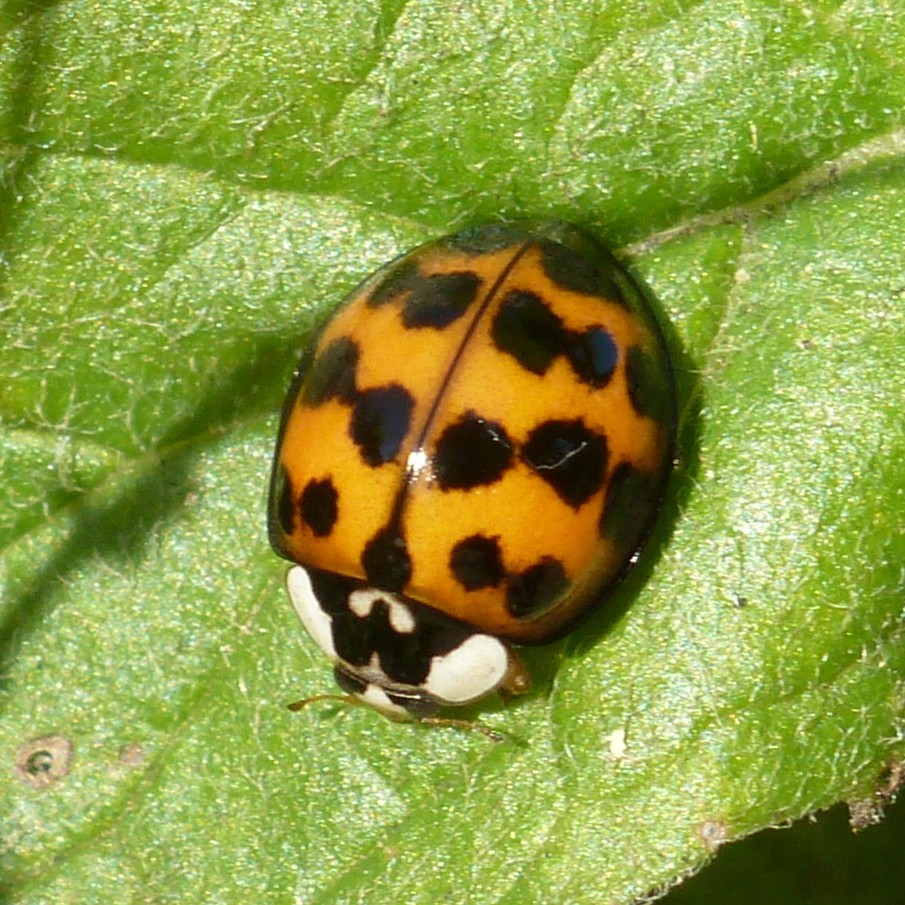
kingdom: Animalia
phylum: Arthropoda
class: Insecta
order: Coleoptera
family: Coccinellidae
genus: Harmonia
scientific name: Harmonia axyridis
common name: Harlequin ladybird
